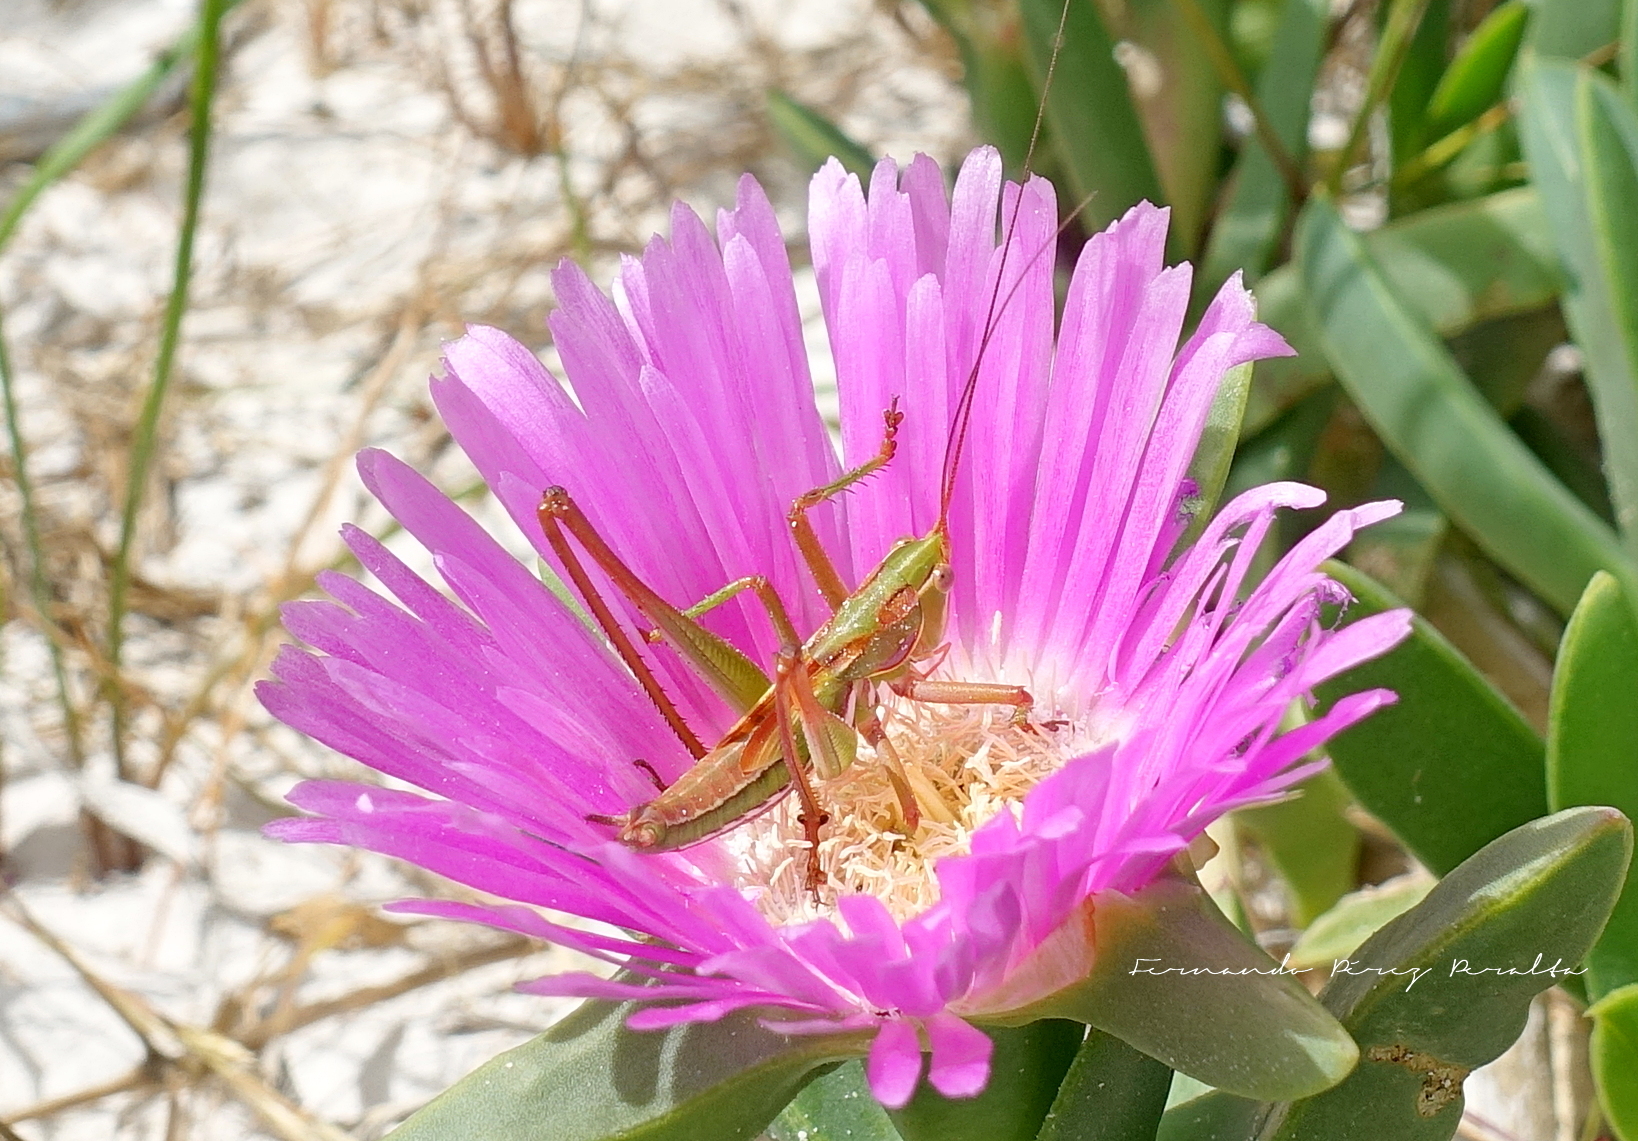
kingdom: Animalia
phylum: Arthropoda
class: Insecta
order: Orthoptera
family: Tettigoniidae
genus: Metaballus
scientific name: Metaballus mucronatus
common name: Wary marauding katydid
